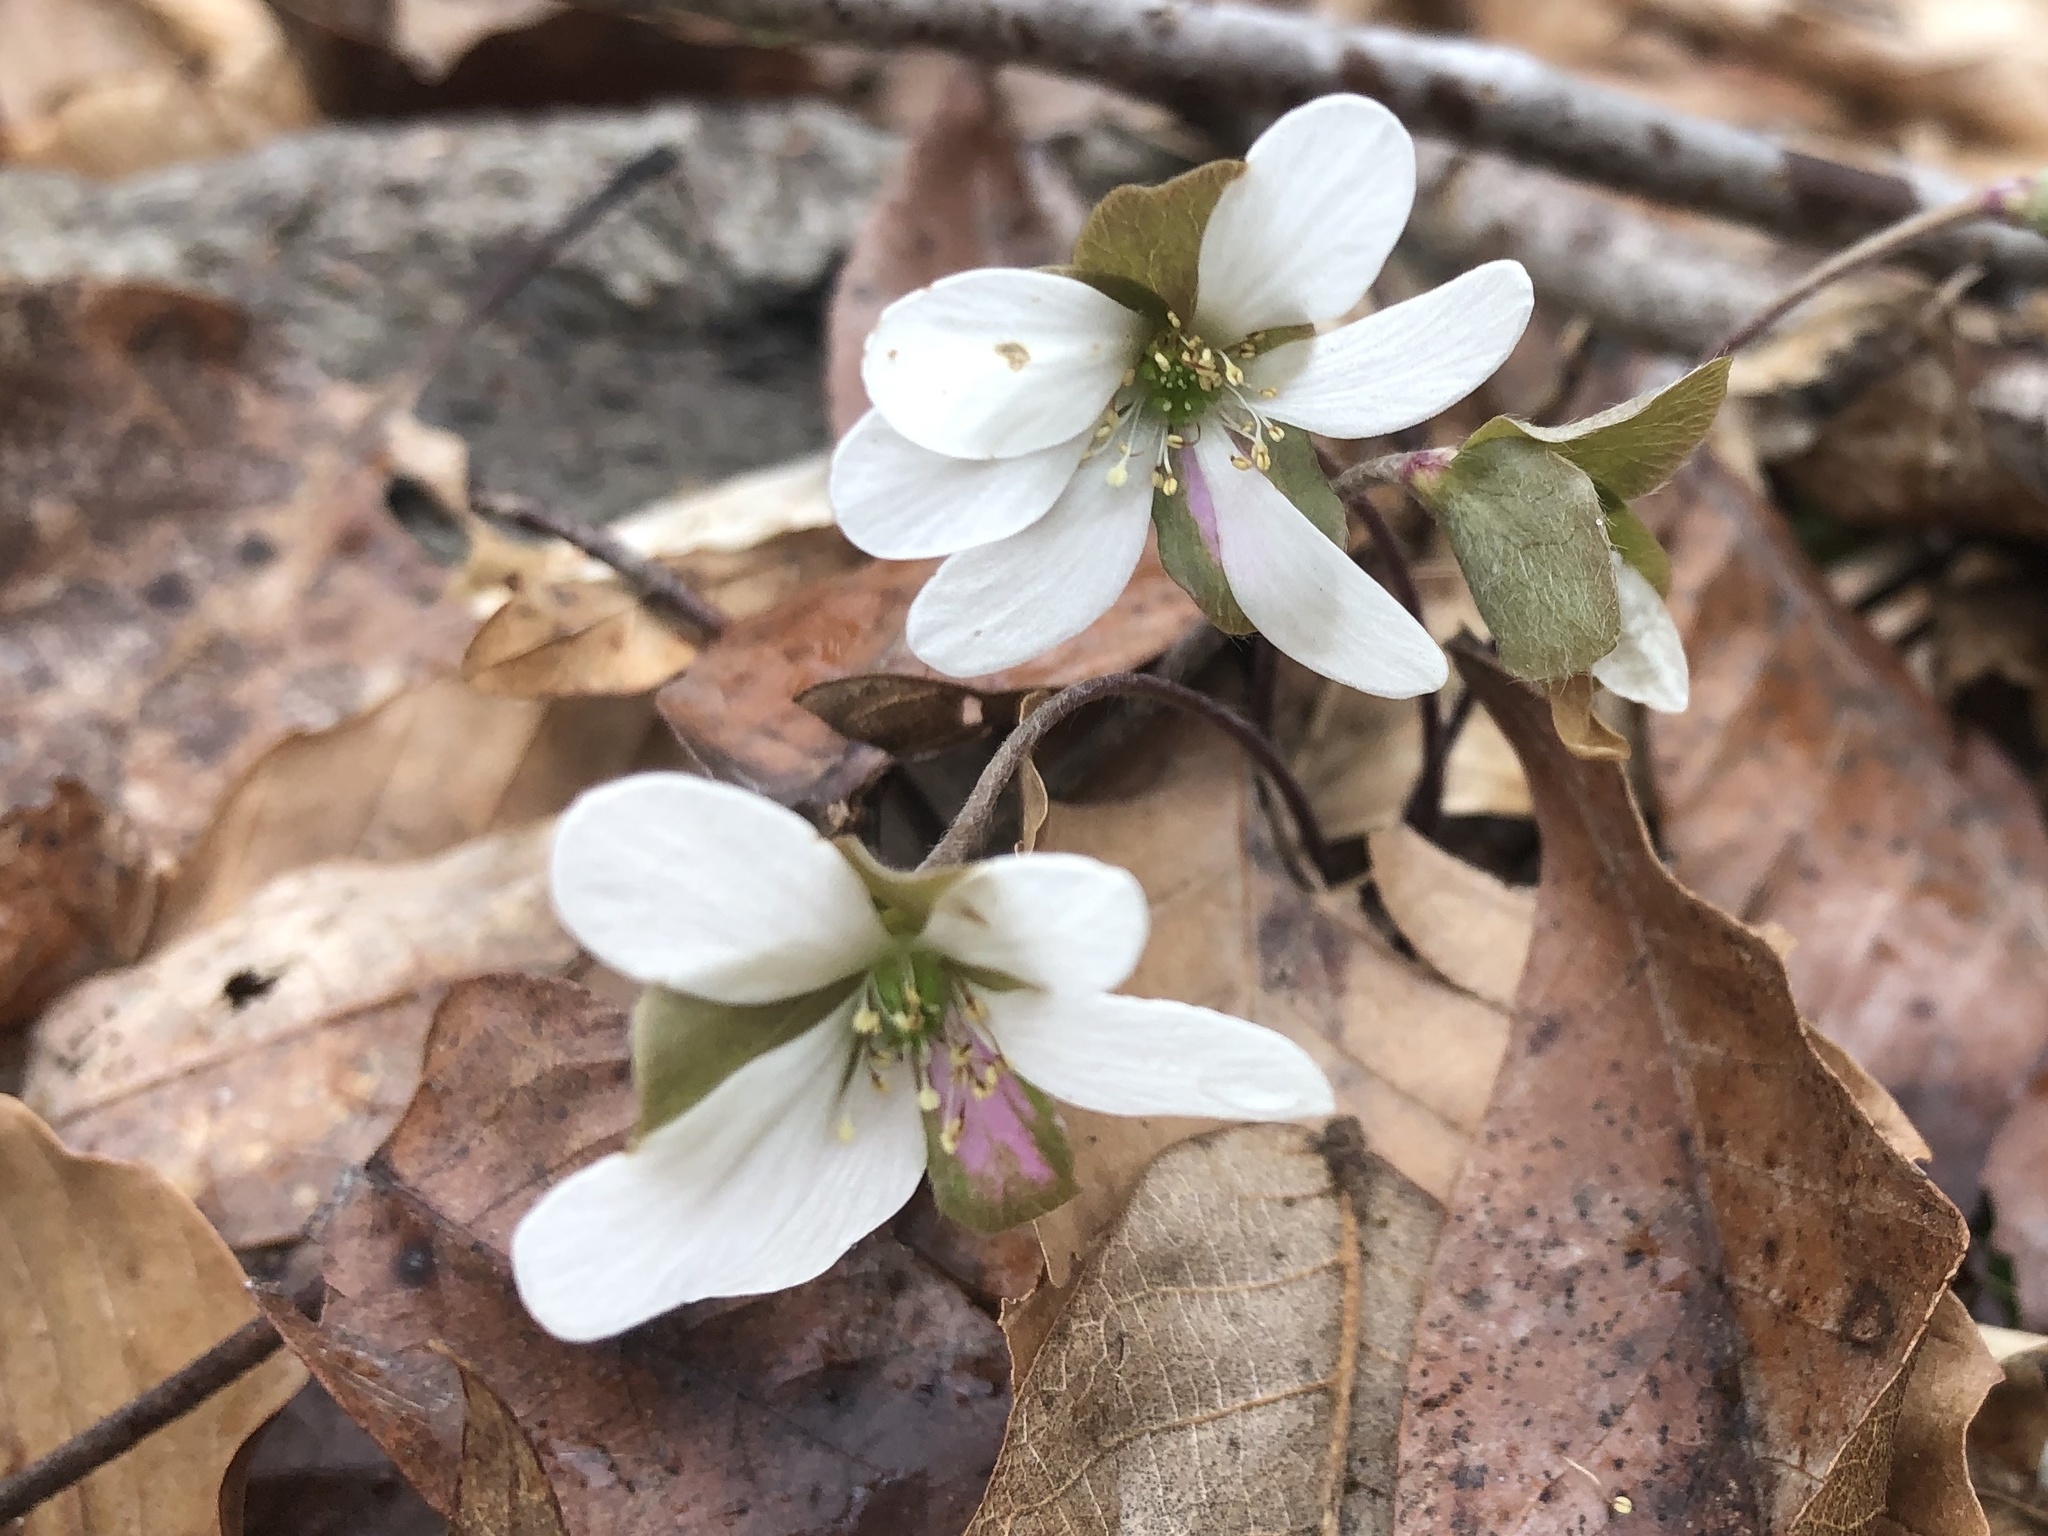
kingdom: Plantae
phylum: Tracheophyta
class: Magnoliopsida
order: Ranunculales
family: Ranunculaceae
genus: Hepatica
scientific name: Hepatica americana
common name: American hepatica
